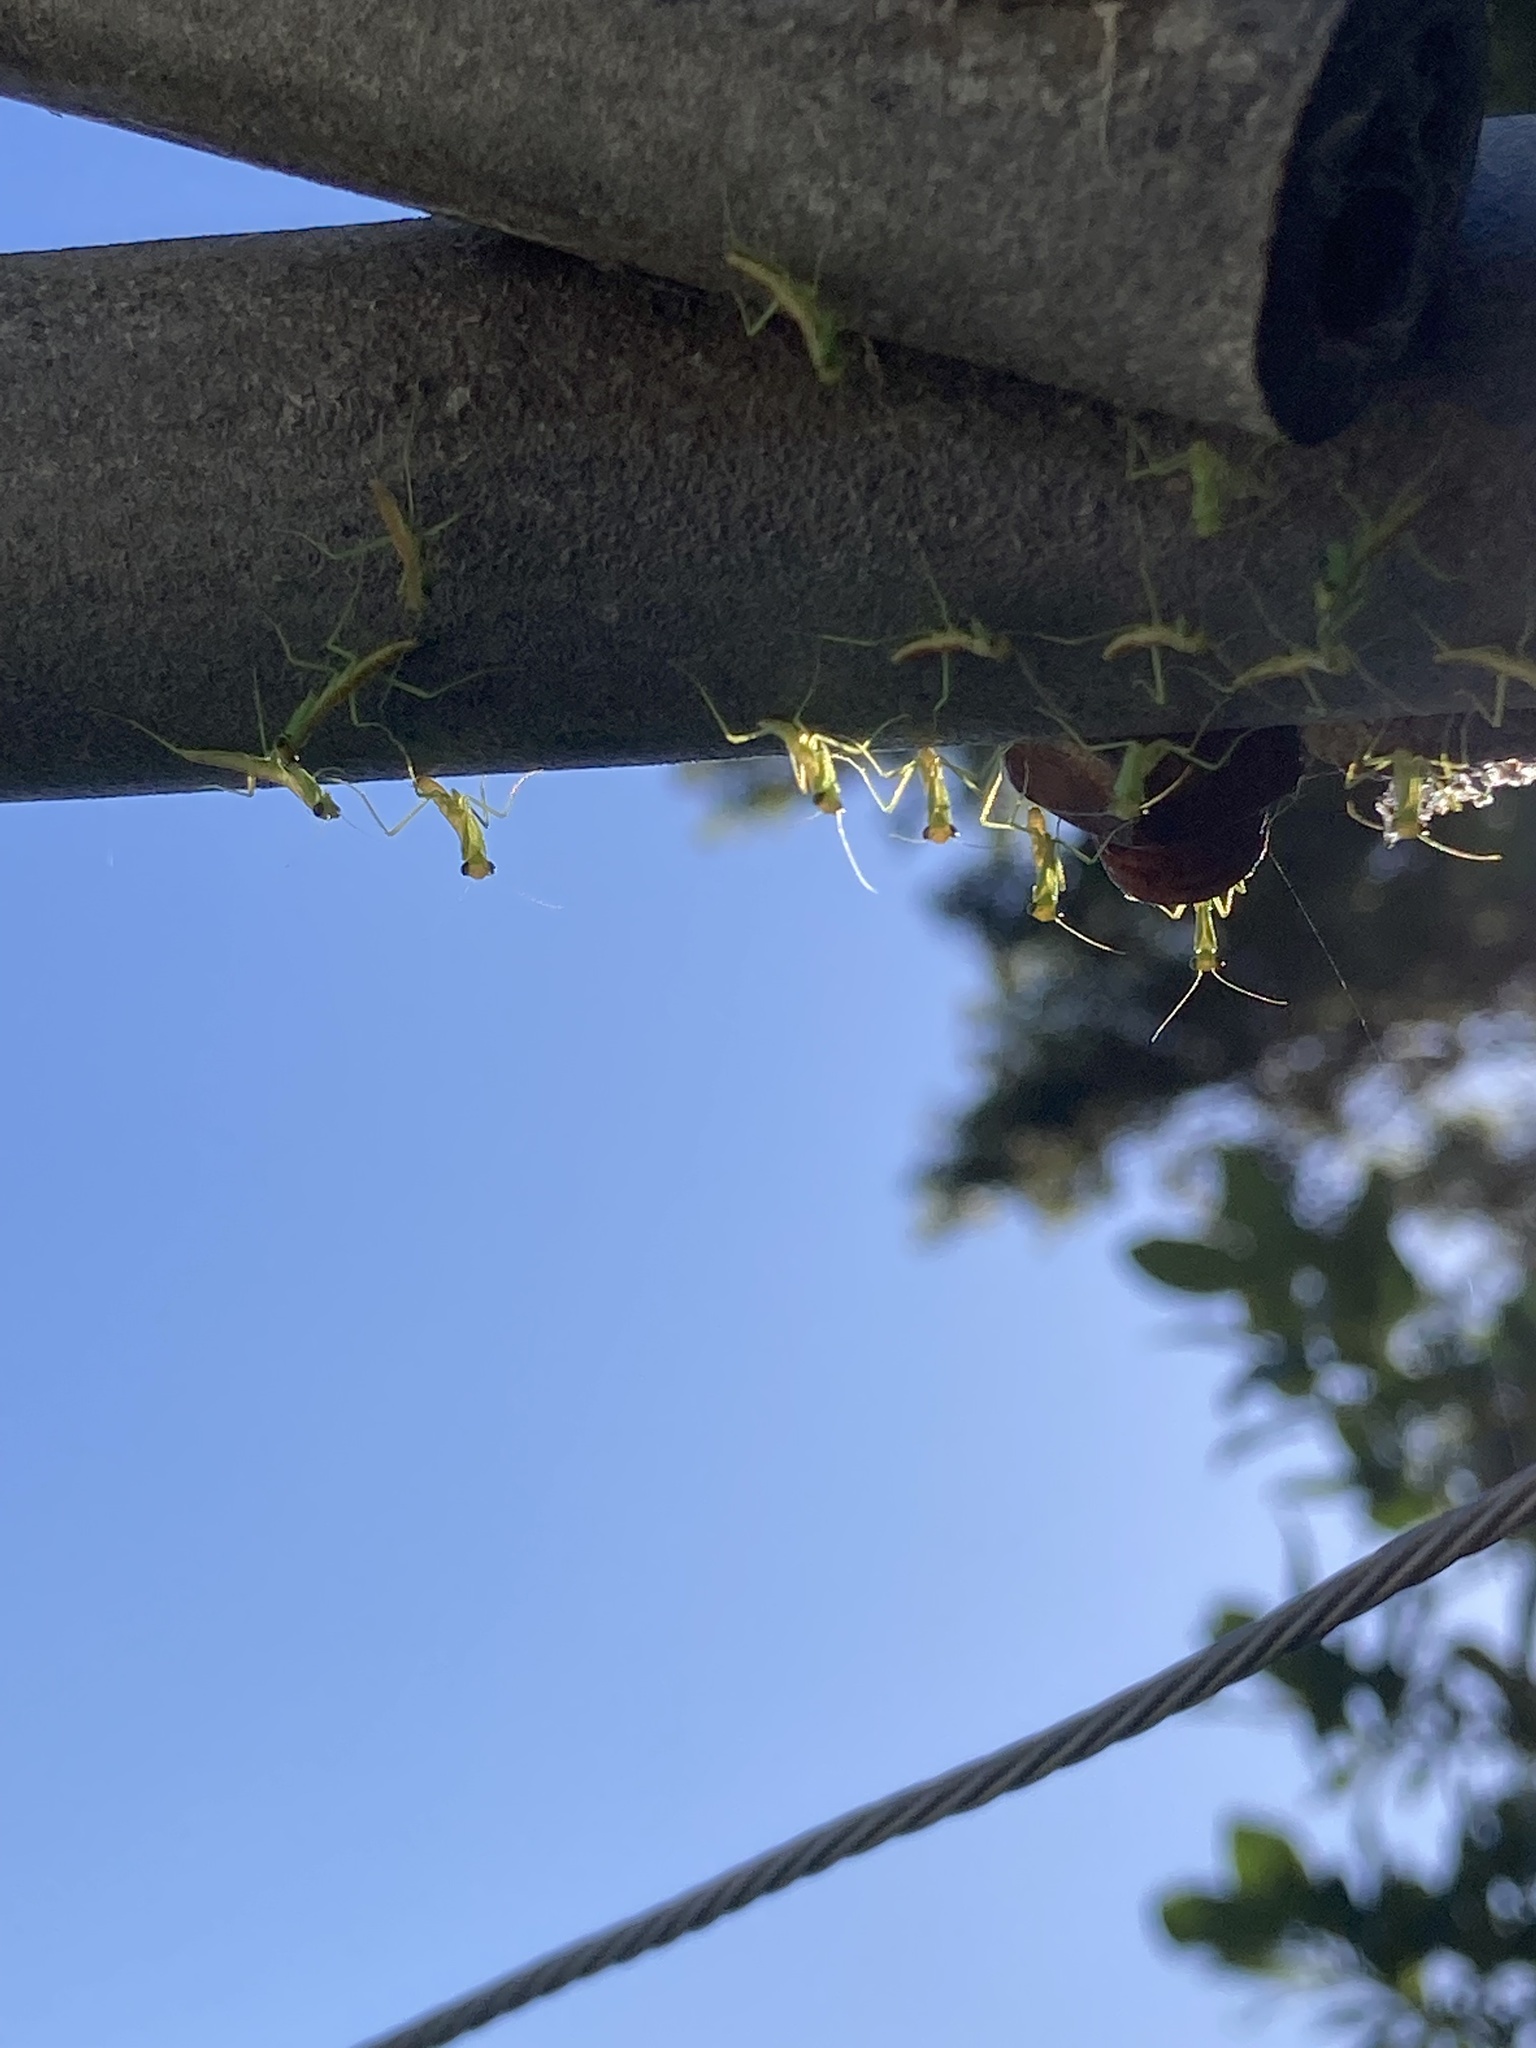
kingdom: Animalia
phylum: Arthropoda
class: Insecta
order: Mantodea
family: Mantidae
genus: Orthodera
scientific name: Orthodera novaezealandiae
